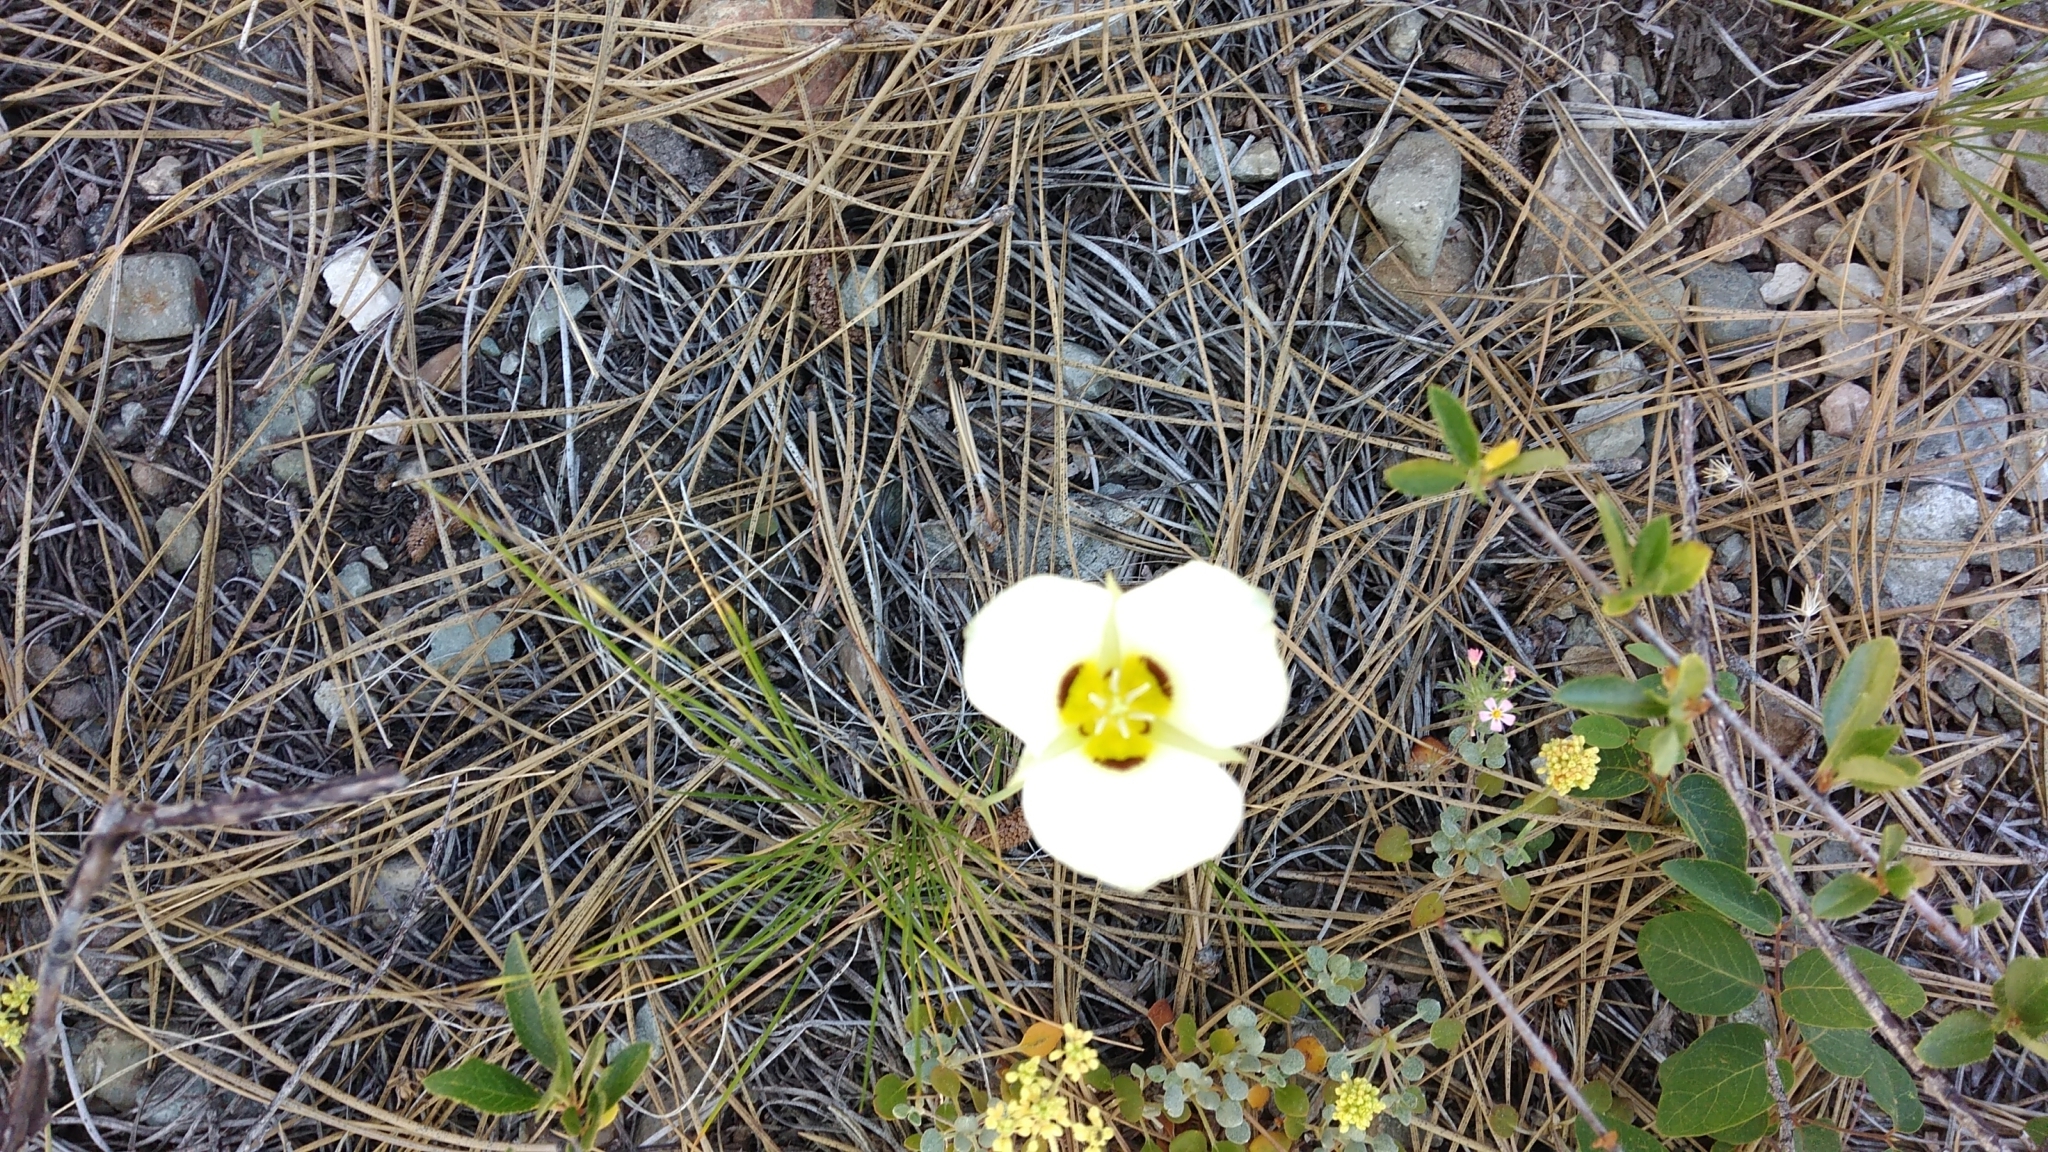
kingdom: Plantae
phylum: Tracheophyta
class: Liliopsida
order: Liliales
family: Liliaceae
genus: Calochortus
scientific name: Calochortus leichtlinii
